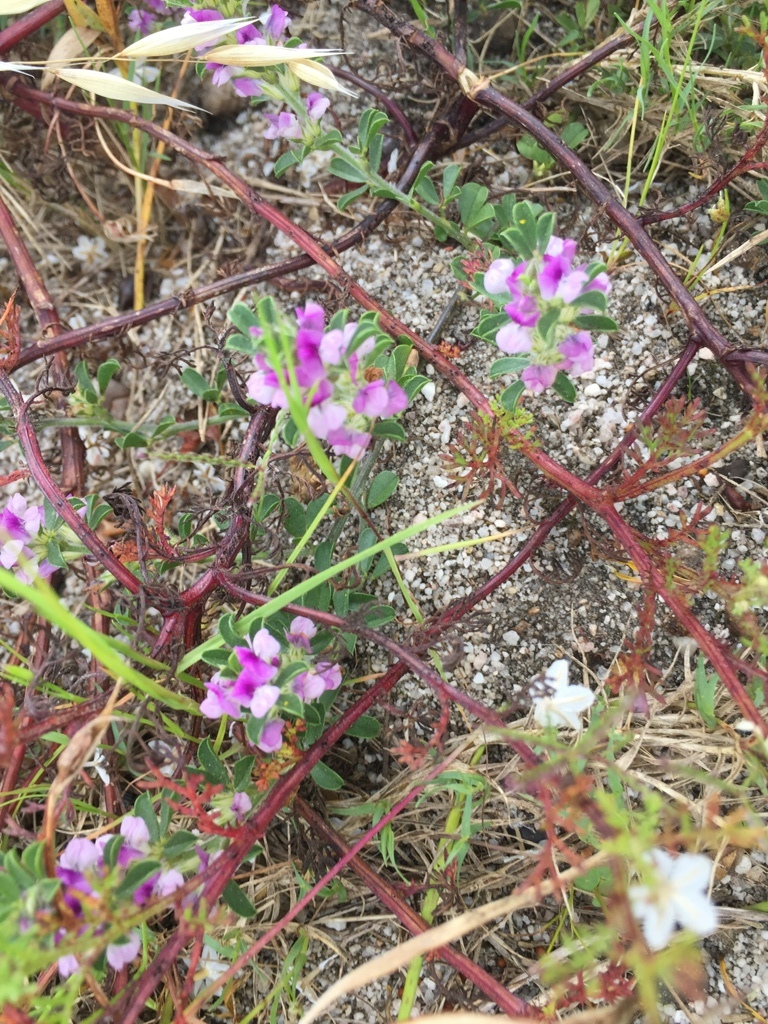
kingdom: Plantae
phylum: Tracheophyta
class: Magnoliopsida
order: Fabales
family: Fabaceae
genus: Psoralea
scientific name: Psoralea
